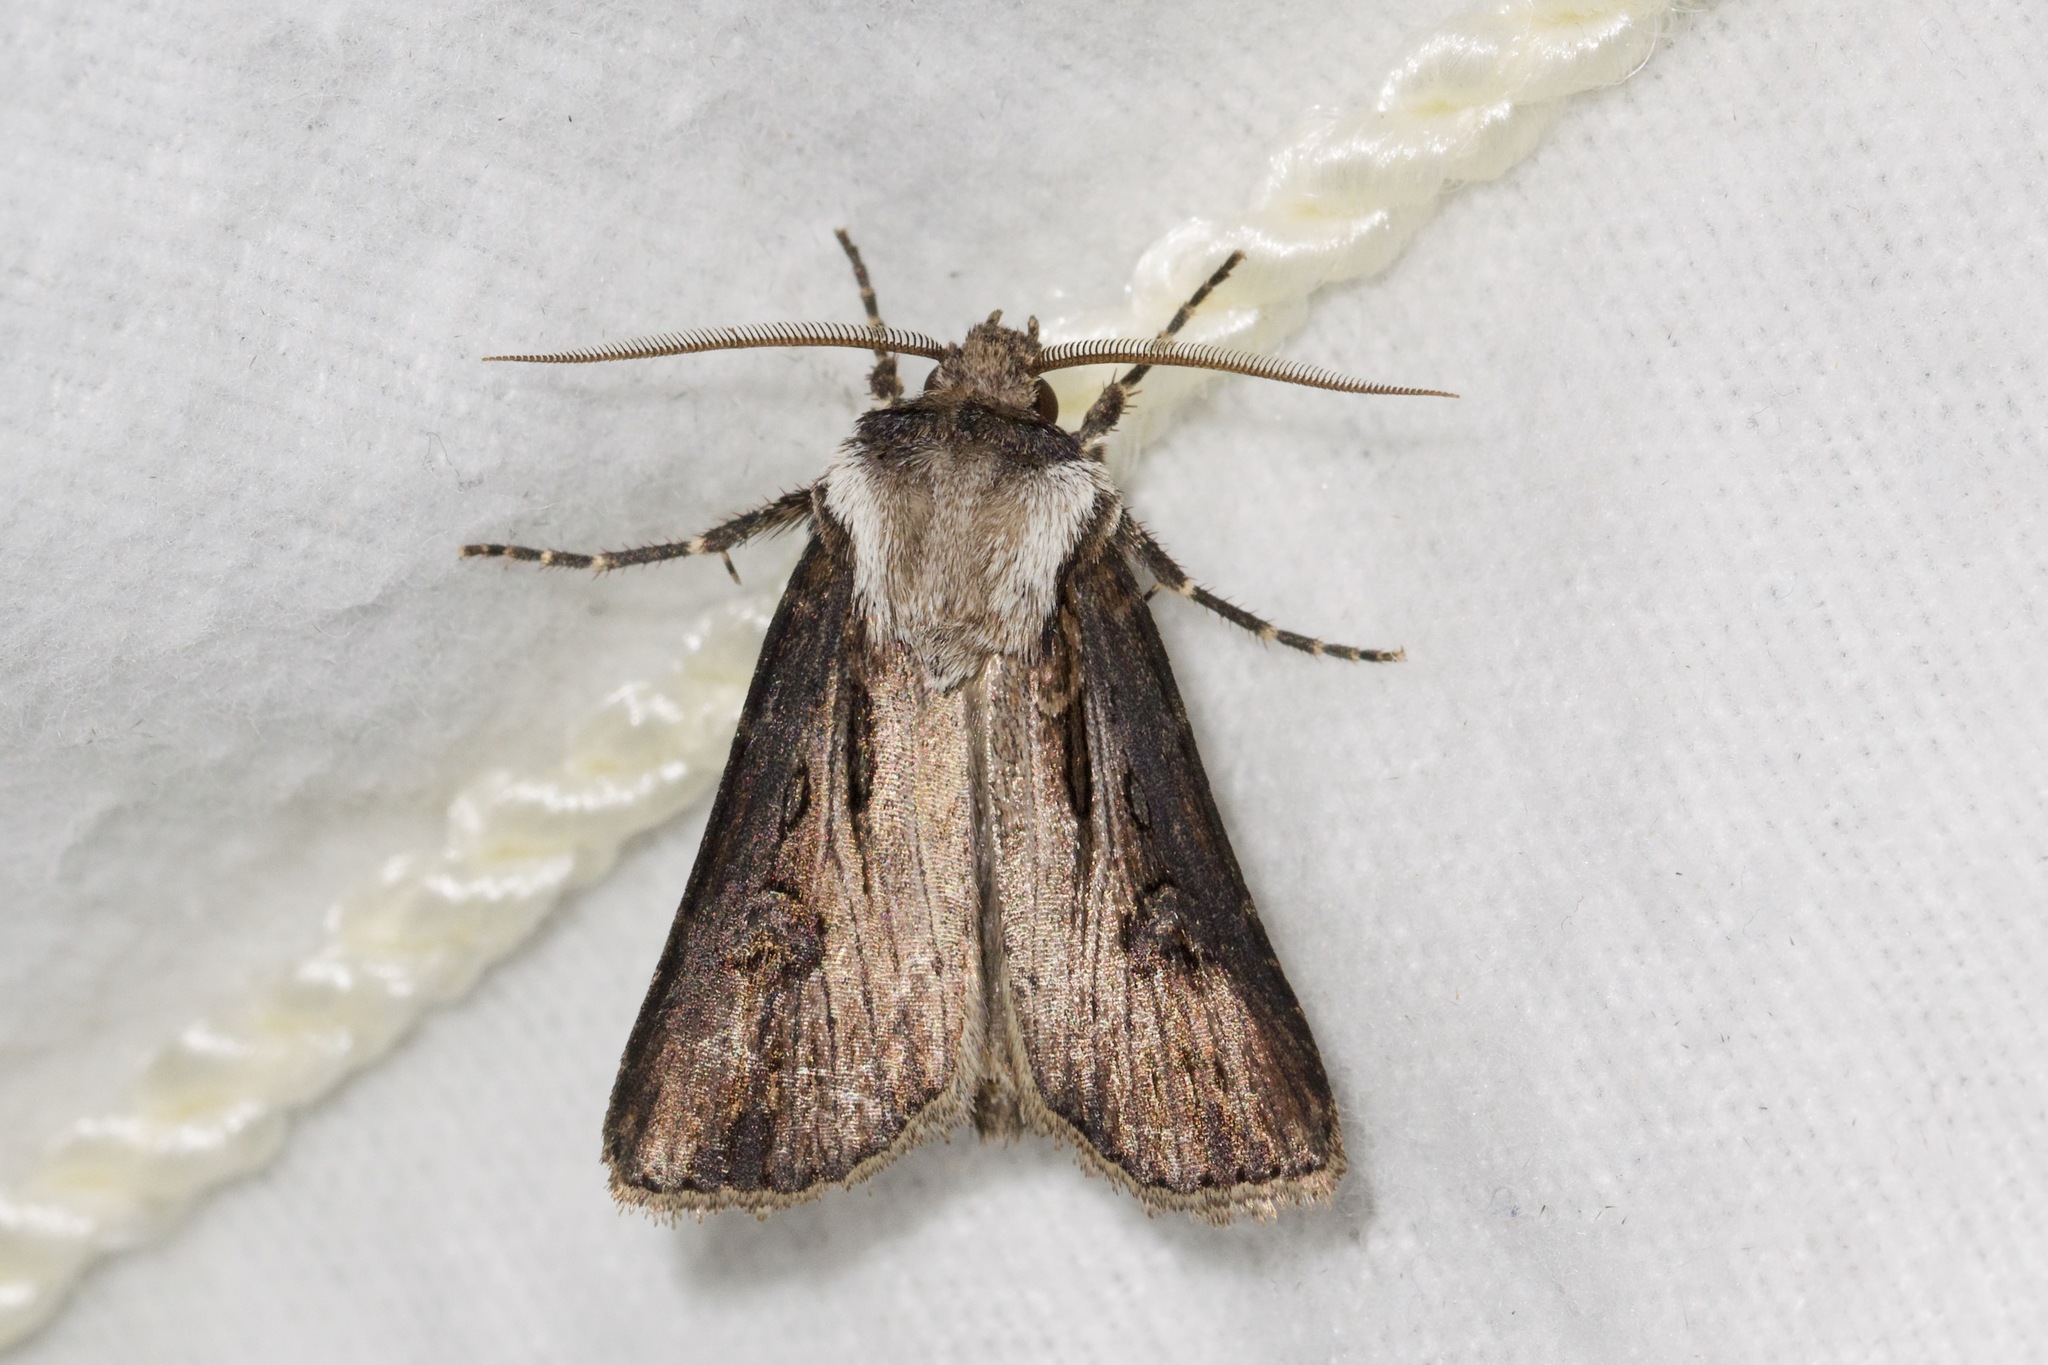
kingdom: Animalia
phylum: Arthropoda
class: Insecta
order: Lepidoptera
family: Noctuidae
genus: Agrotis
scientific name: Agrotis venerabilis
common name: Venerable dart
